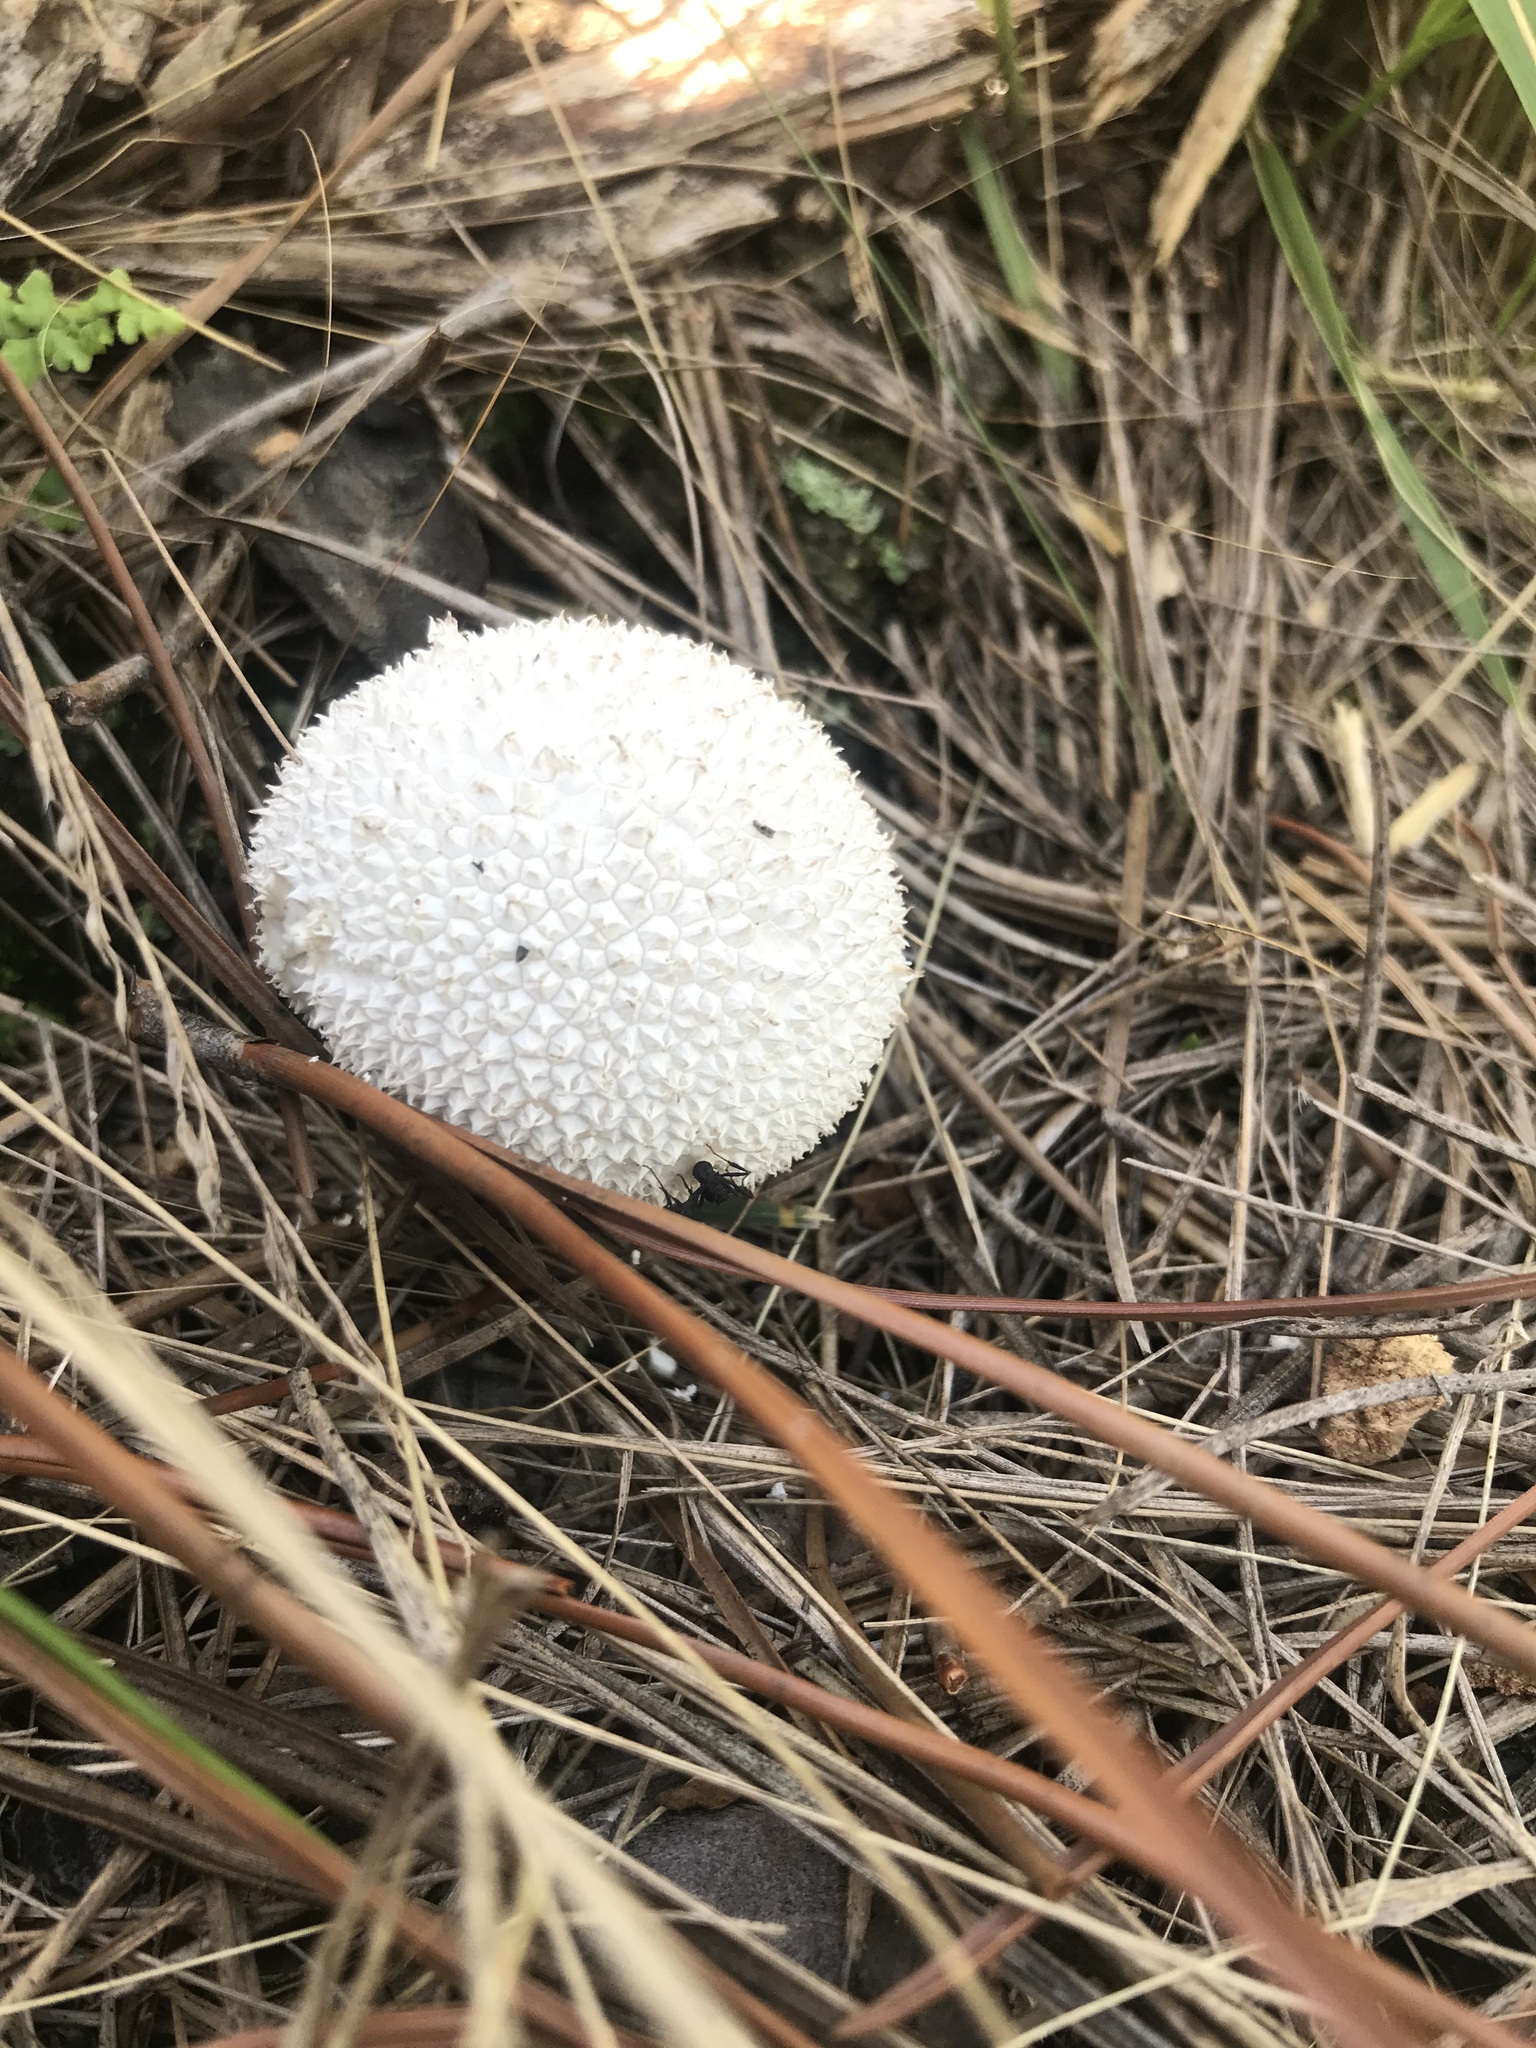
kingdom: Fungi
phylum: Basidiomycota
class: Agaricomycetes
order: Agaricales
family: Agaricaceae
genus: Lycoperdon
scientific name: Lycoperdon marginatum
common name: Peeling puffball
